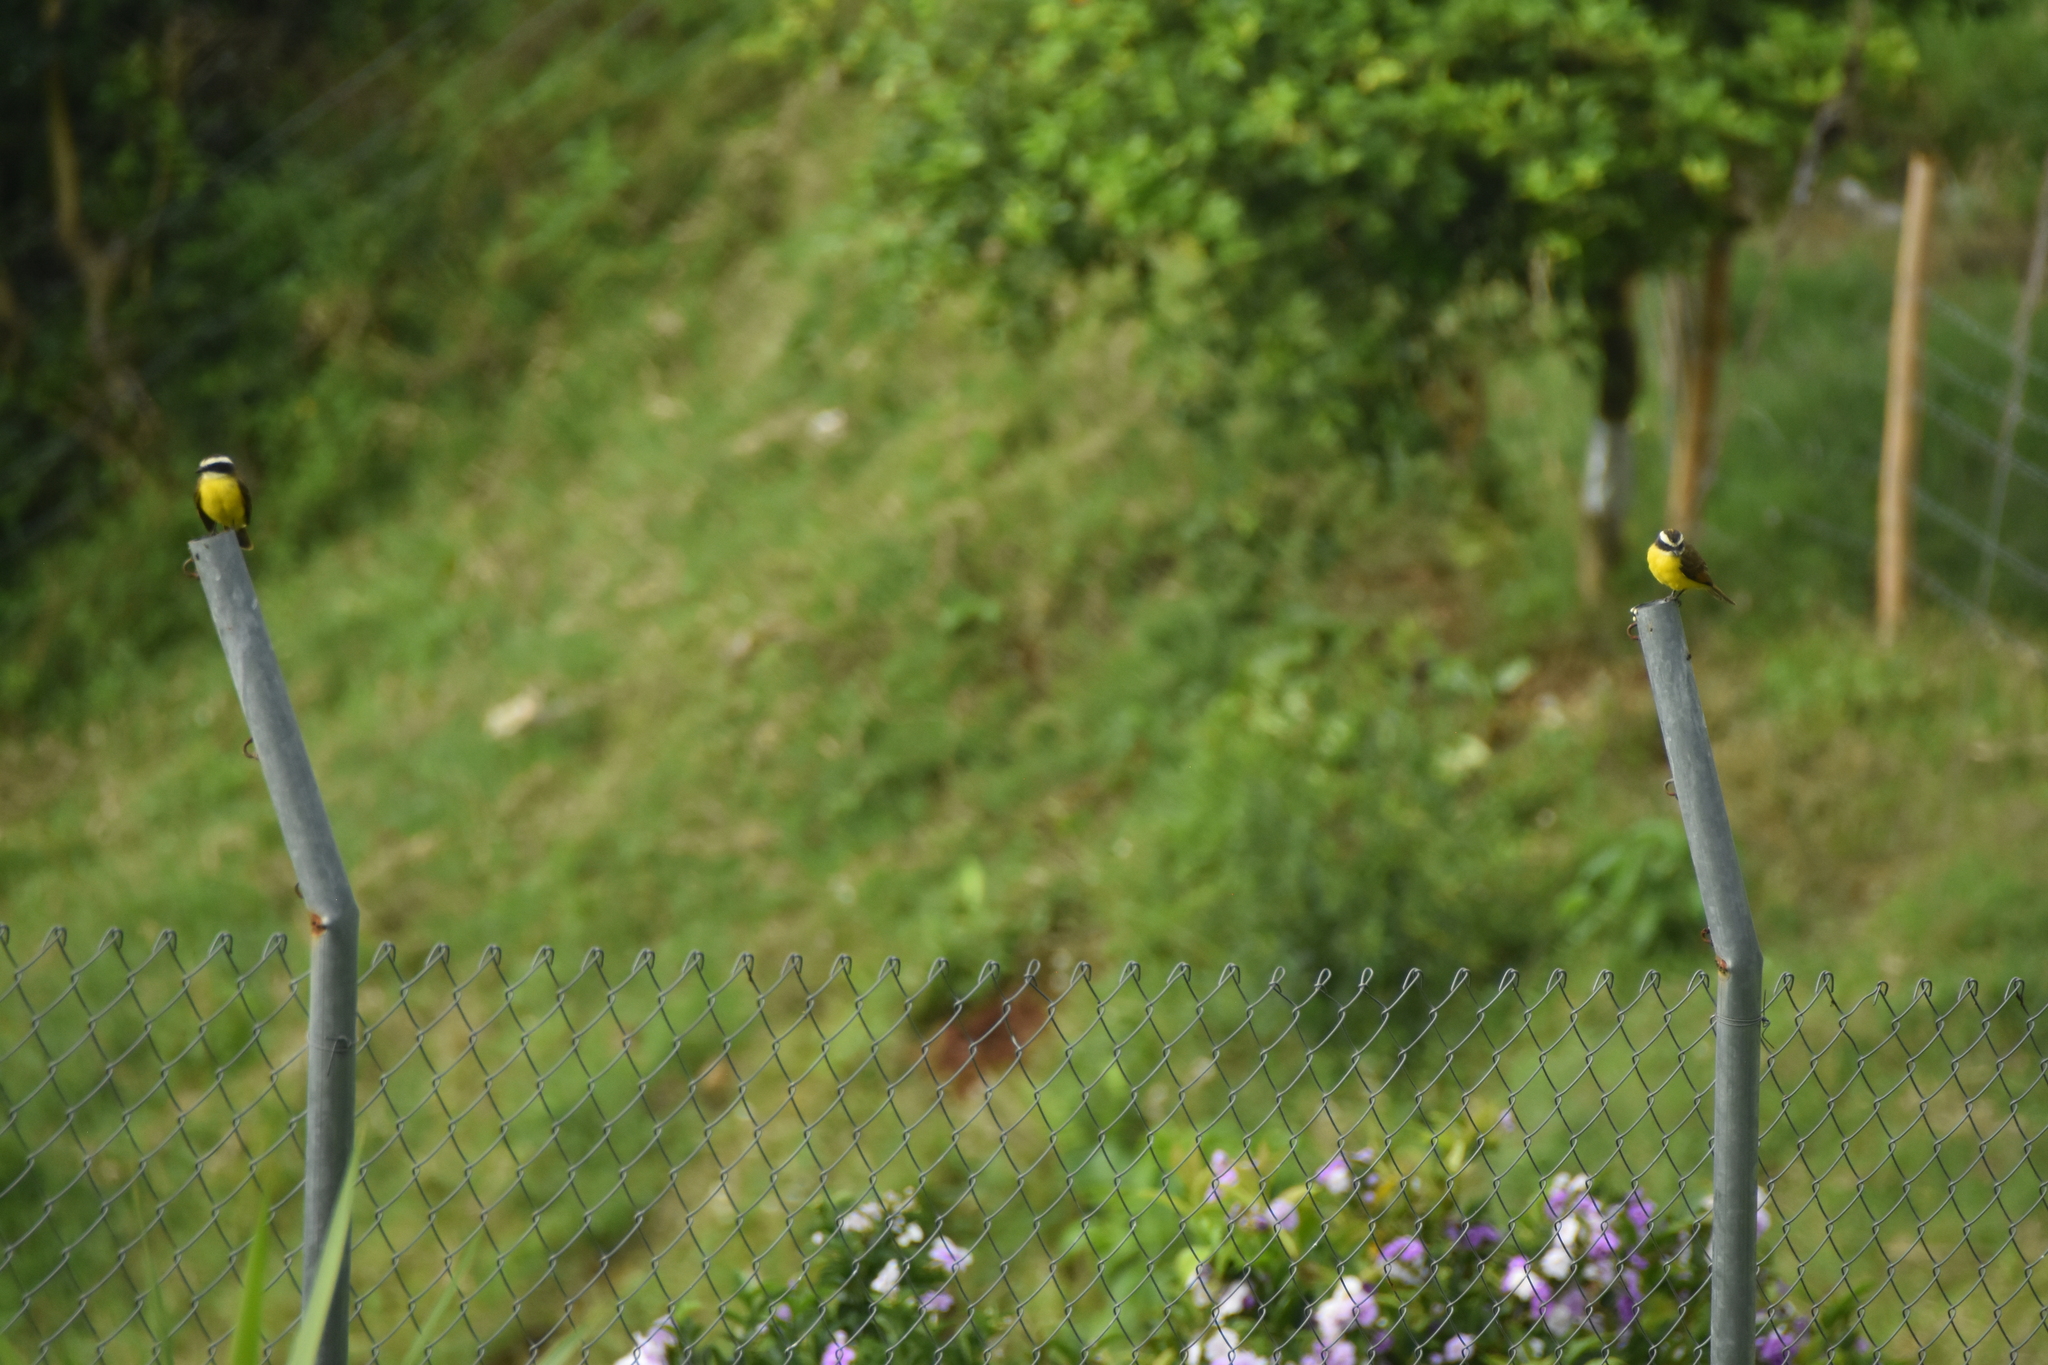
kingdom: Animalia
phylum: Chordata
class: Aves
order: Passeriformes
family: Tyrannidae
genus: Myiozetetes
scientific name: Myiozetetes cayanensis
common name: Rusty-margined flycatcher
